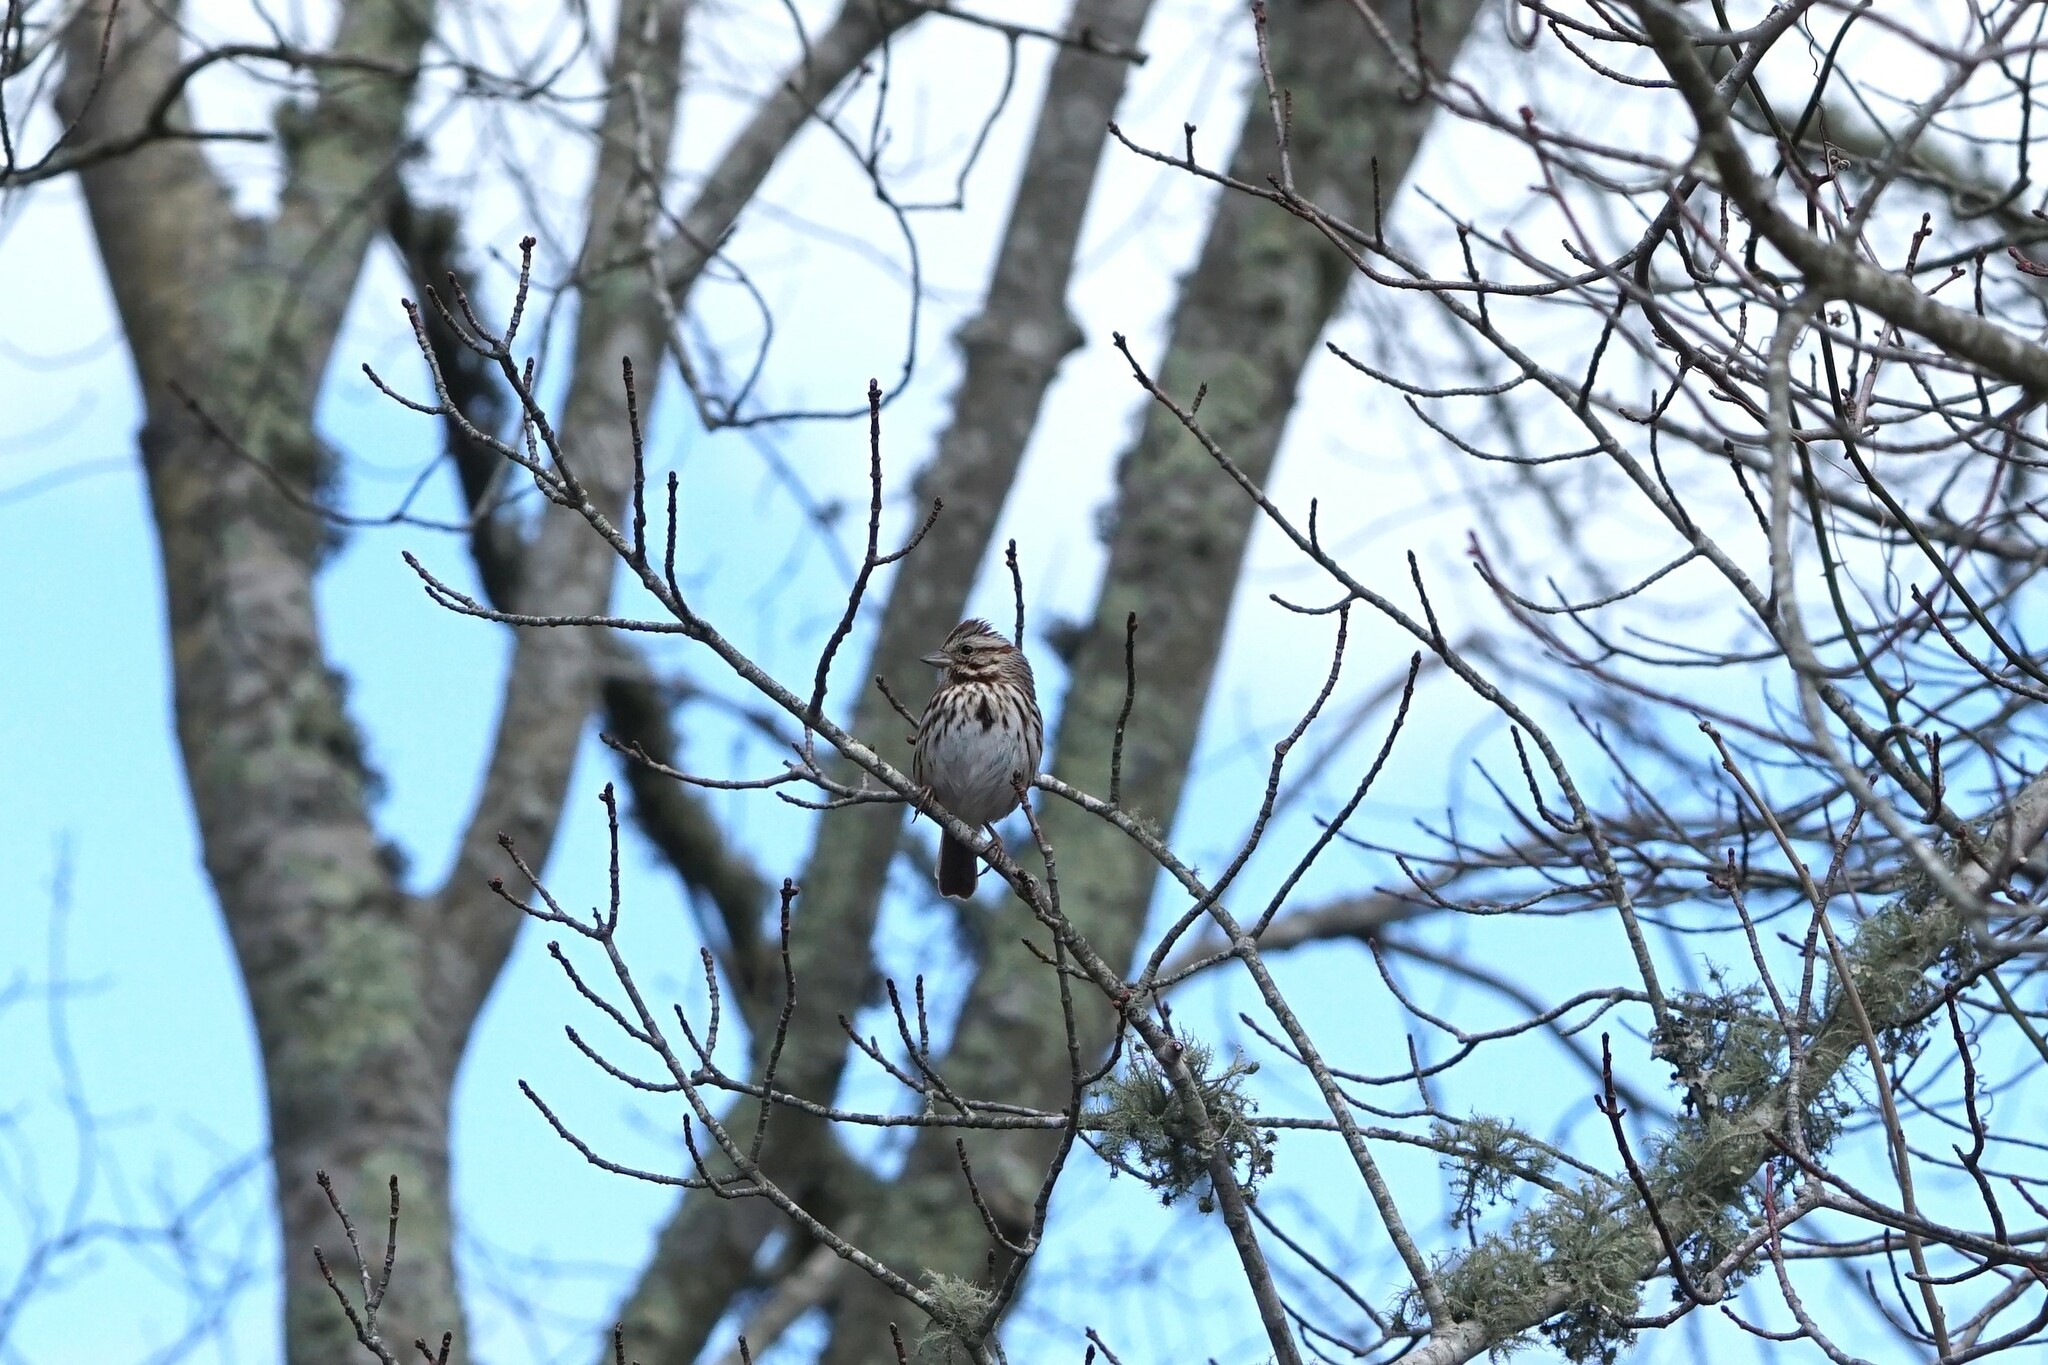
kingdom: Animalia
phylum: Chordata
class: Aves
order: Passeriformes
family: Passerellidae
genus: Melospiza
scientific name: Melospiza melodia
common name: Song sparrow
